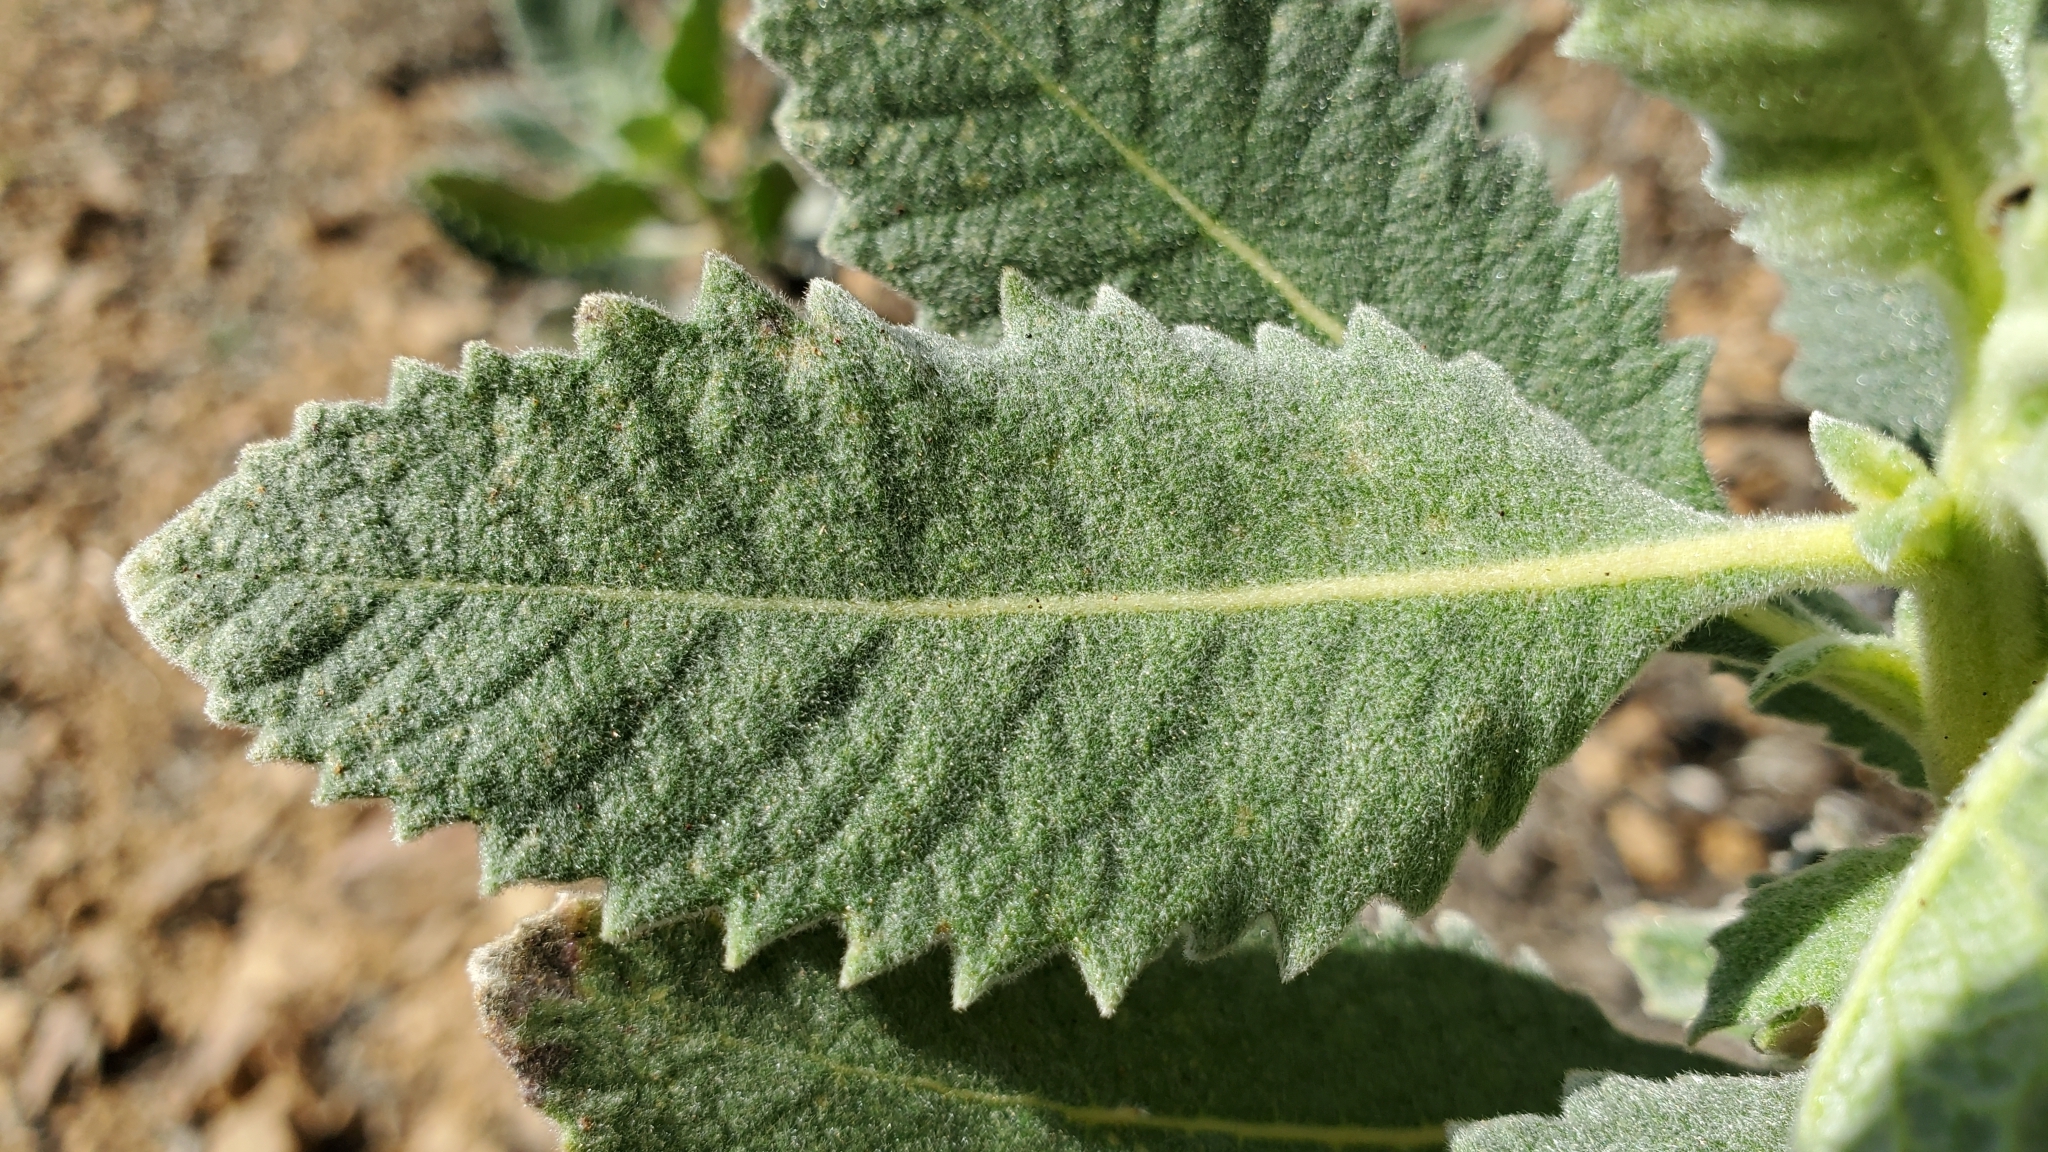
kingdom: Plantae
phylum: Tracheophyta
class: Magnoliopsida
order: Boraginales
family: Namaceae
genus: Eriodictyon
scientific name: Eriodictyon crassifolium
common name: Thick-leaf yerba-santa
